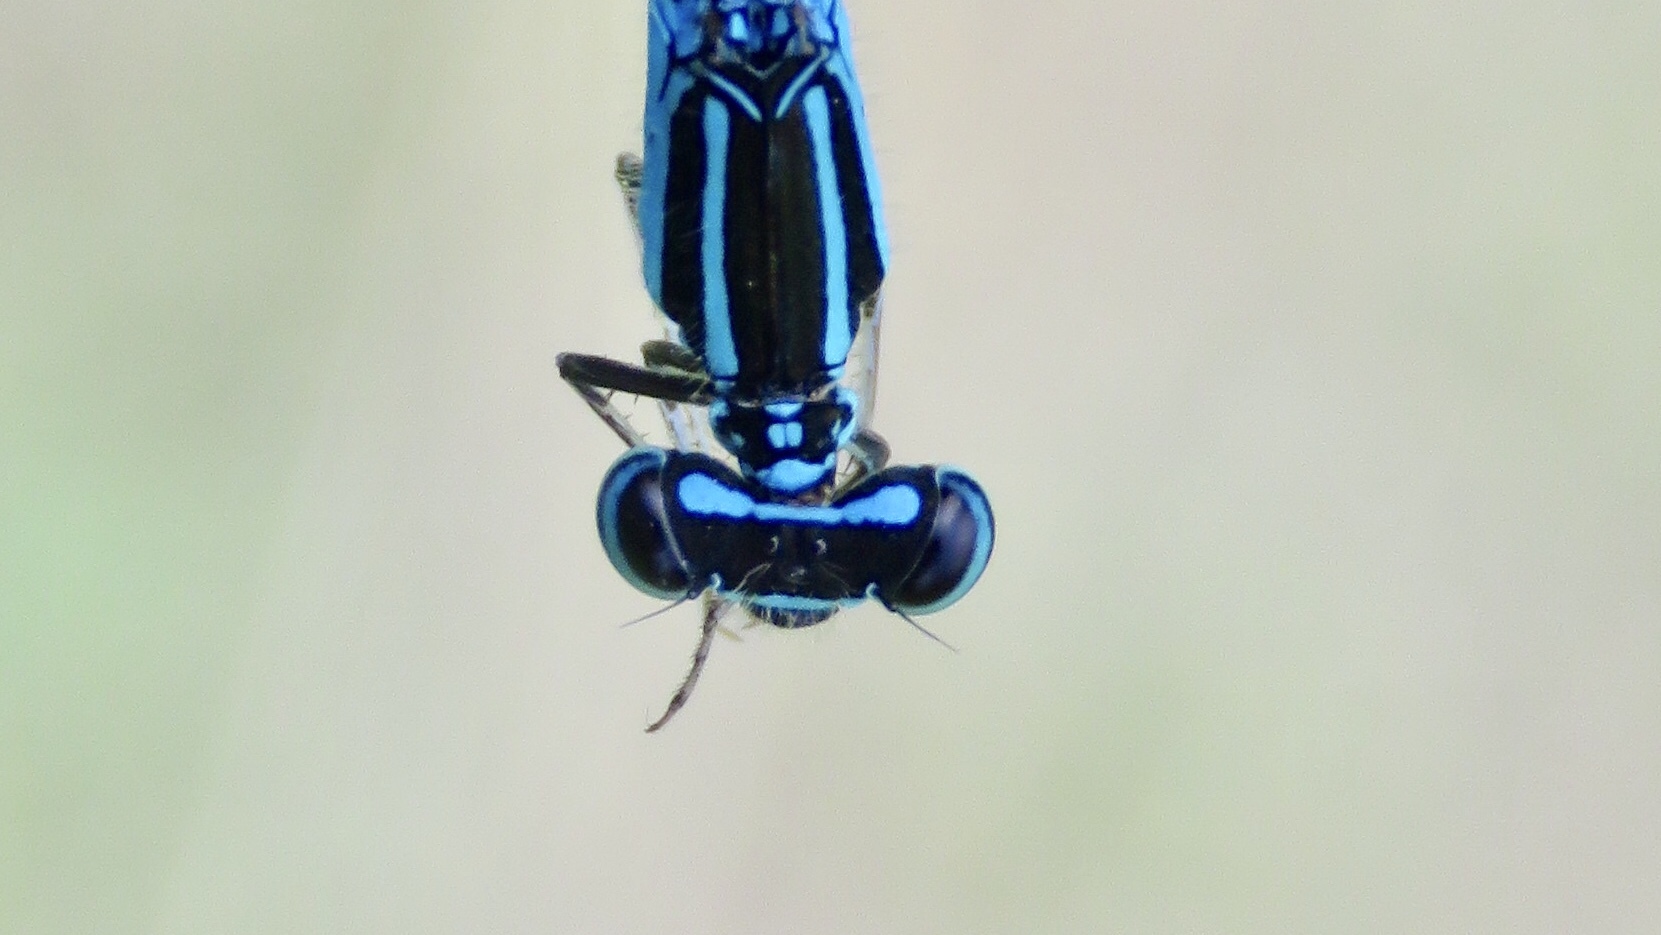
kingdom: Animalia
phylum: Arthropoda
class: Insecta
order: Odonata
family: Coenagrionidae
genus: Enallagma
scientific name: Enallagma exsulans
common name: Stream bluet
